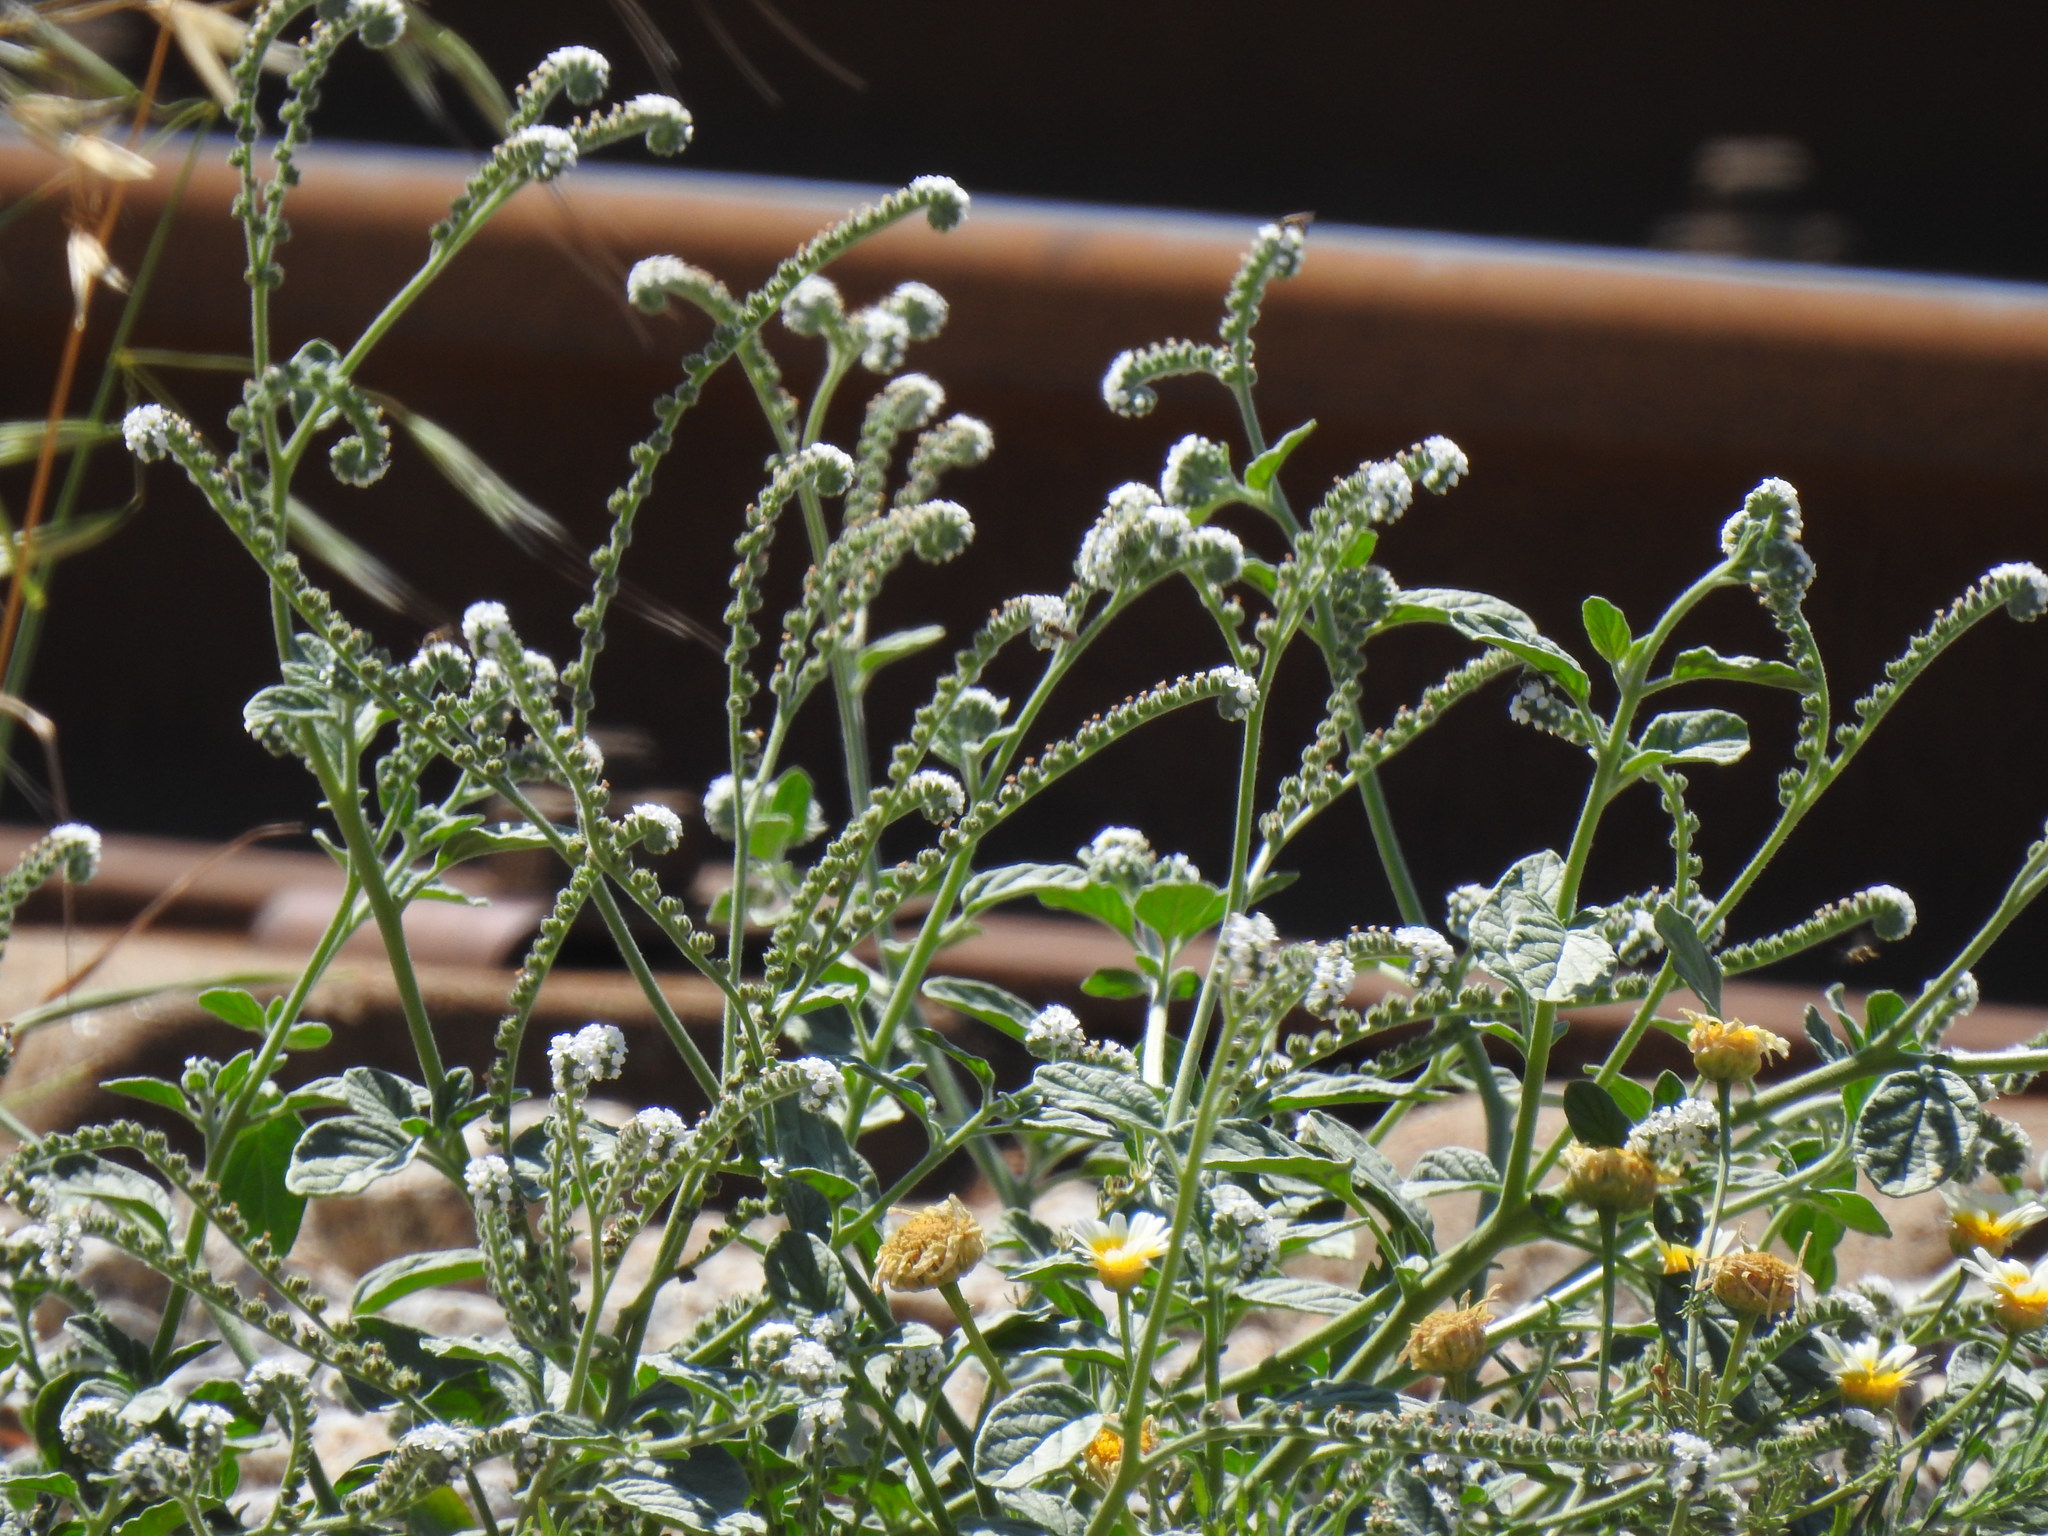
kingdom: Plantae
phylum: Tracheophyta
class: Magnoliopsida
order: Boraginales
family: Heliotropiaceae
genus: Heliotropium
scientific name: Heliotropium europaeum
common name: European heliotrope
